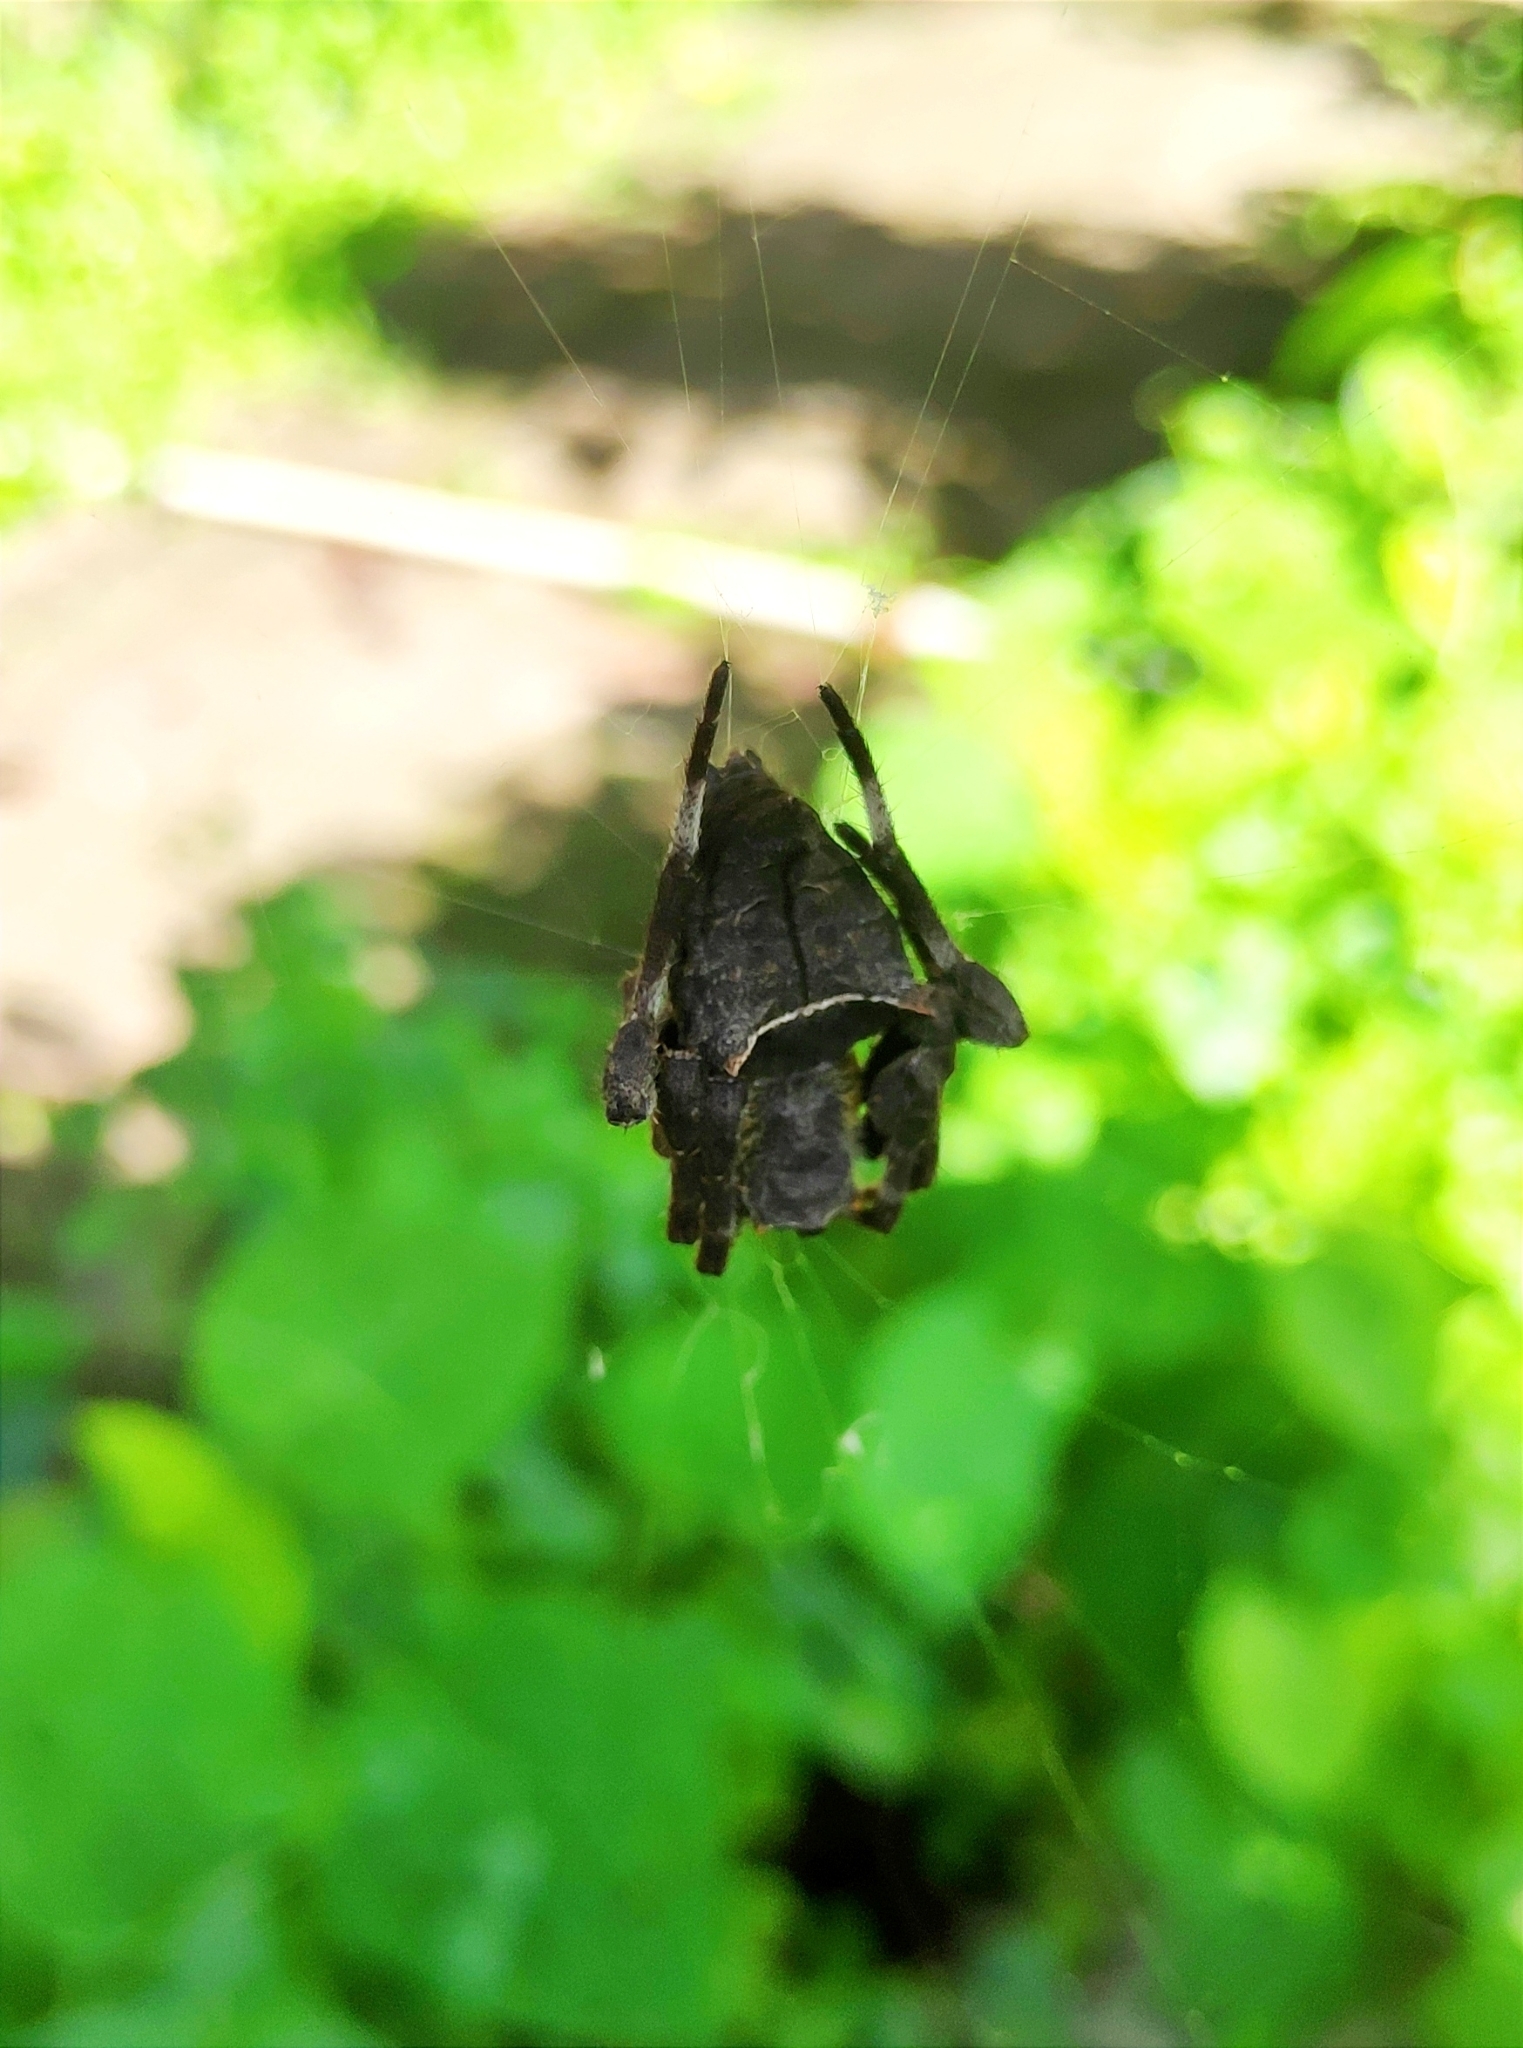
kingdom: Animalia
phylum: Arthropoda
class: Arachnida
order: Araneae
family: Araneidae
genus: Parawixia
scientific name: Parawixia dehaani
